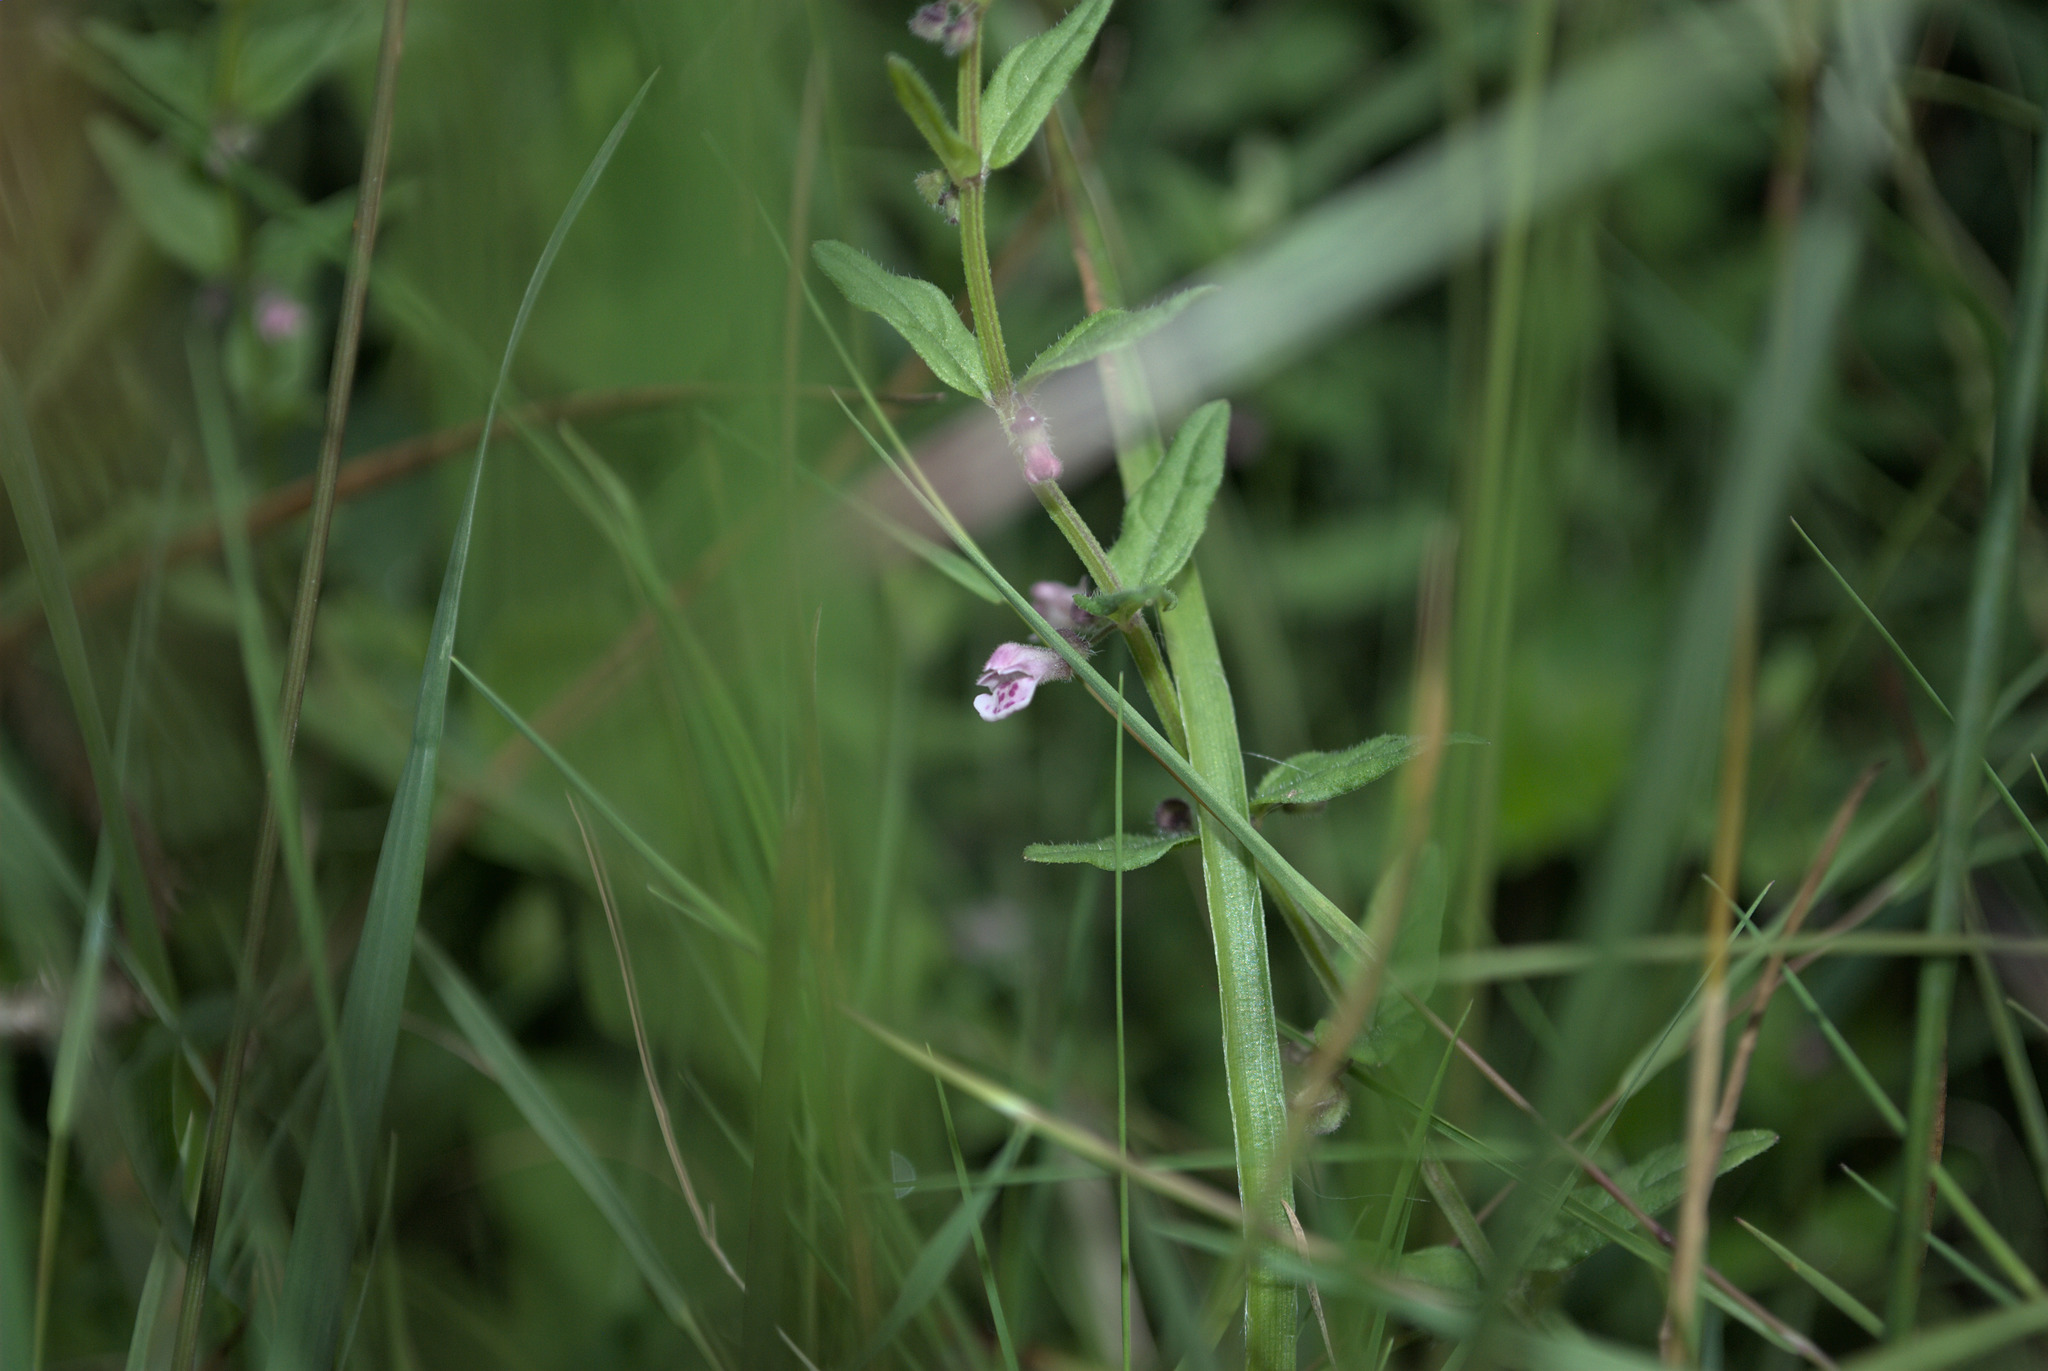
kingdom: Plantae
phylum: Tracheophyta
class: Magnoliopsida
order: Lamiales
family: Lamiaceae
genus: Scutellaria
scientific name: Scutellaria minor
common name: Lesser skullcap
